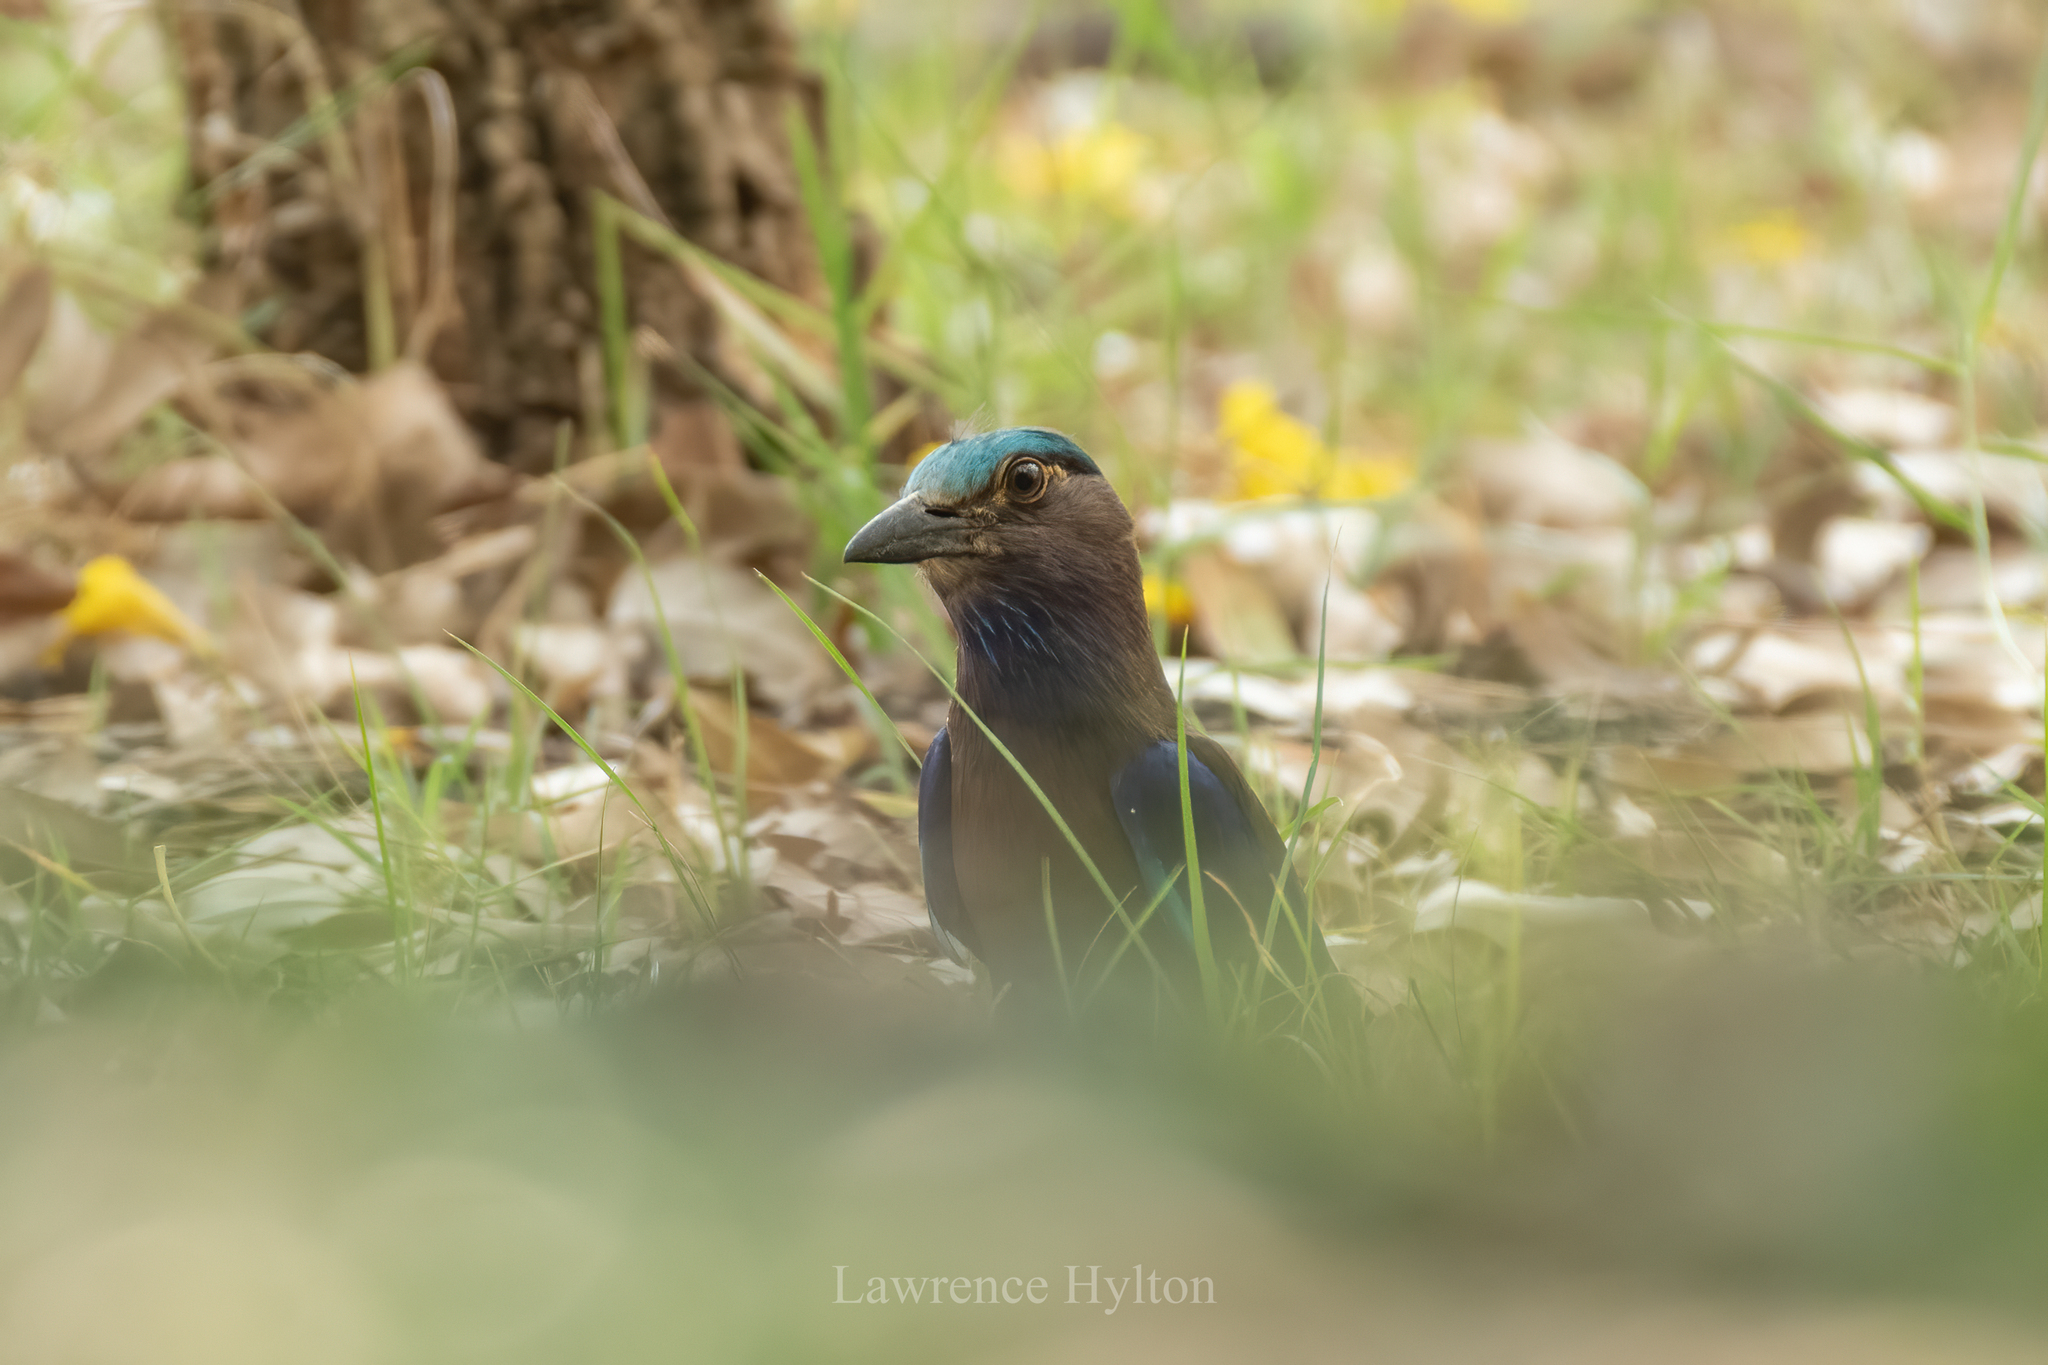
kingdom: Animalia
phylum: Chordata
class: Aves
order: Coraciiformes
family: Coraciidae
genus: Coracias
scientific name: Coracias affinis
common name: Indochinese roller
